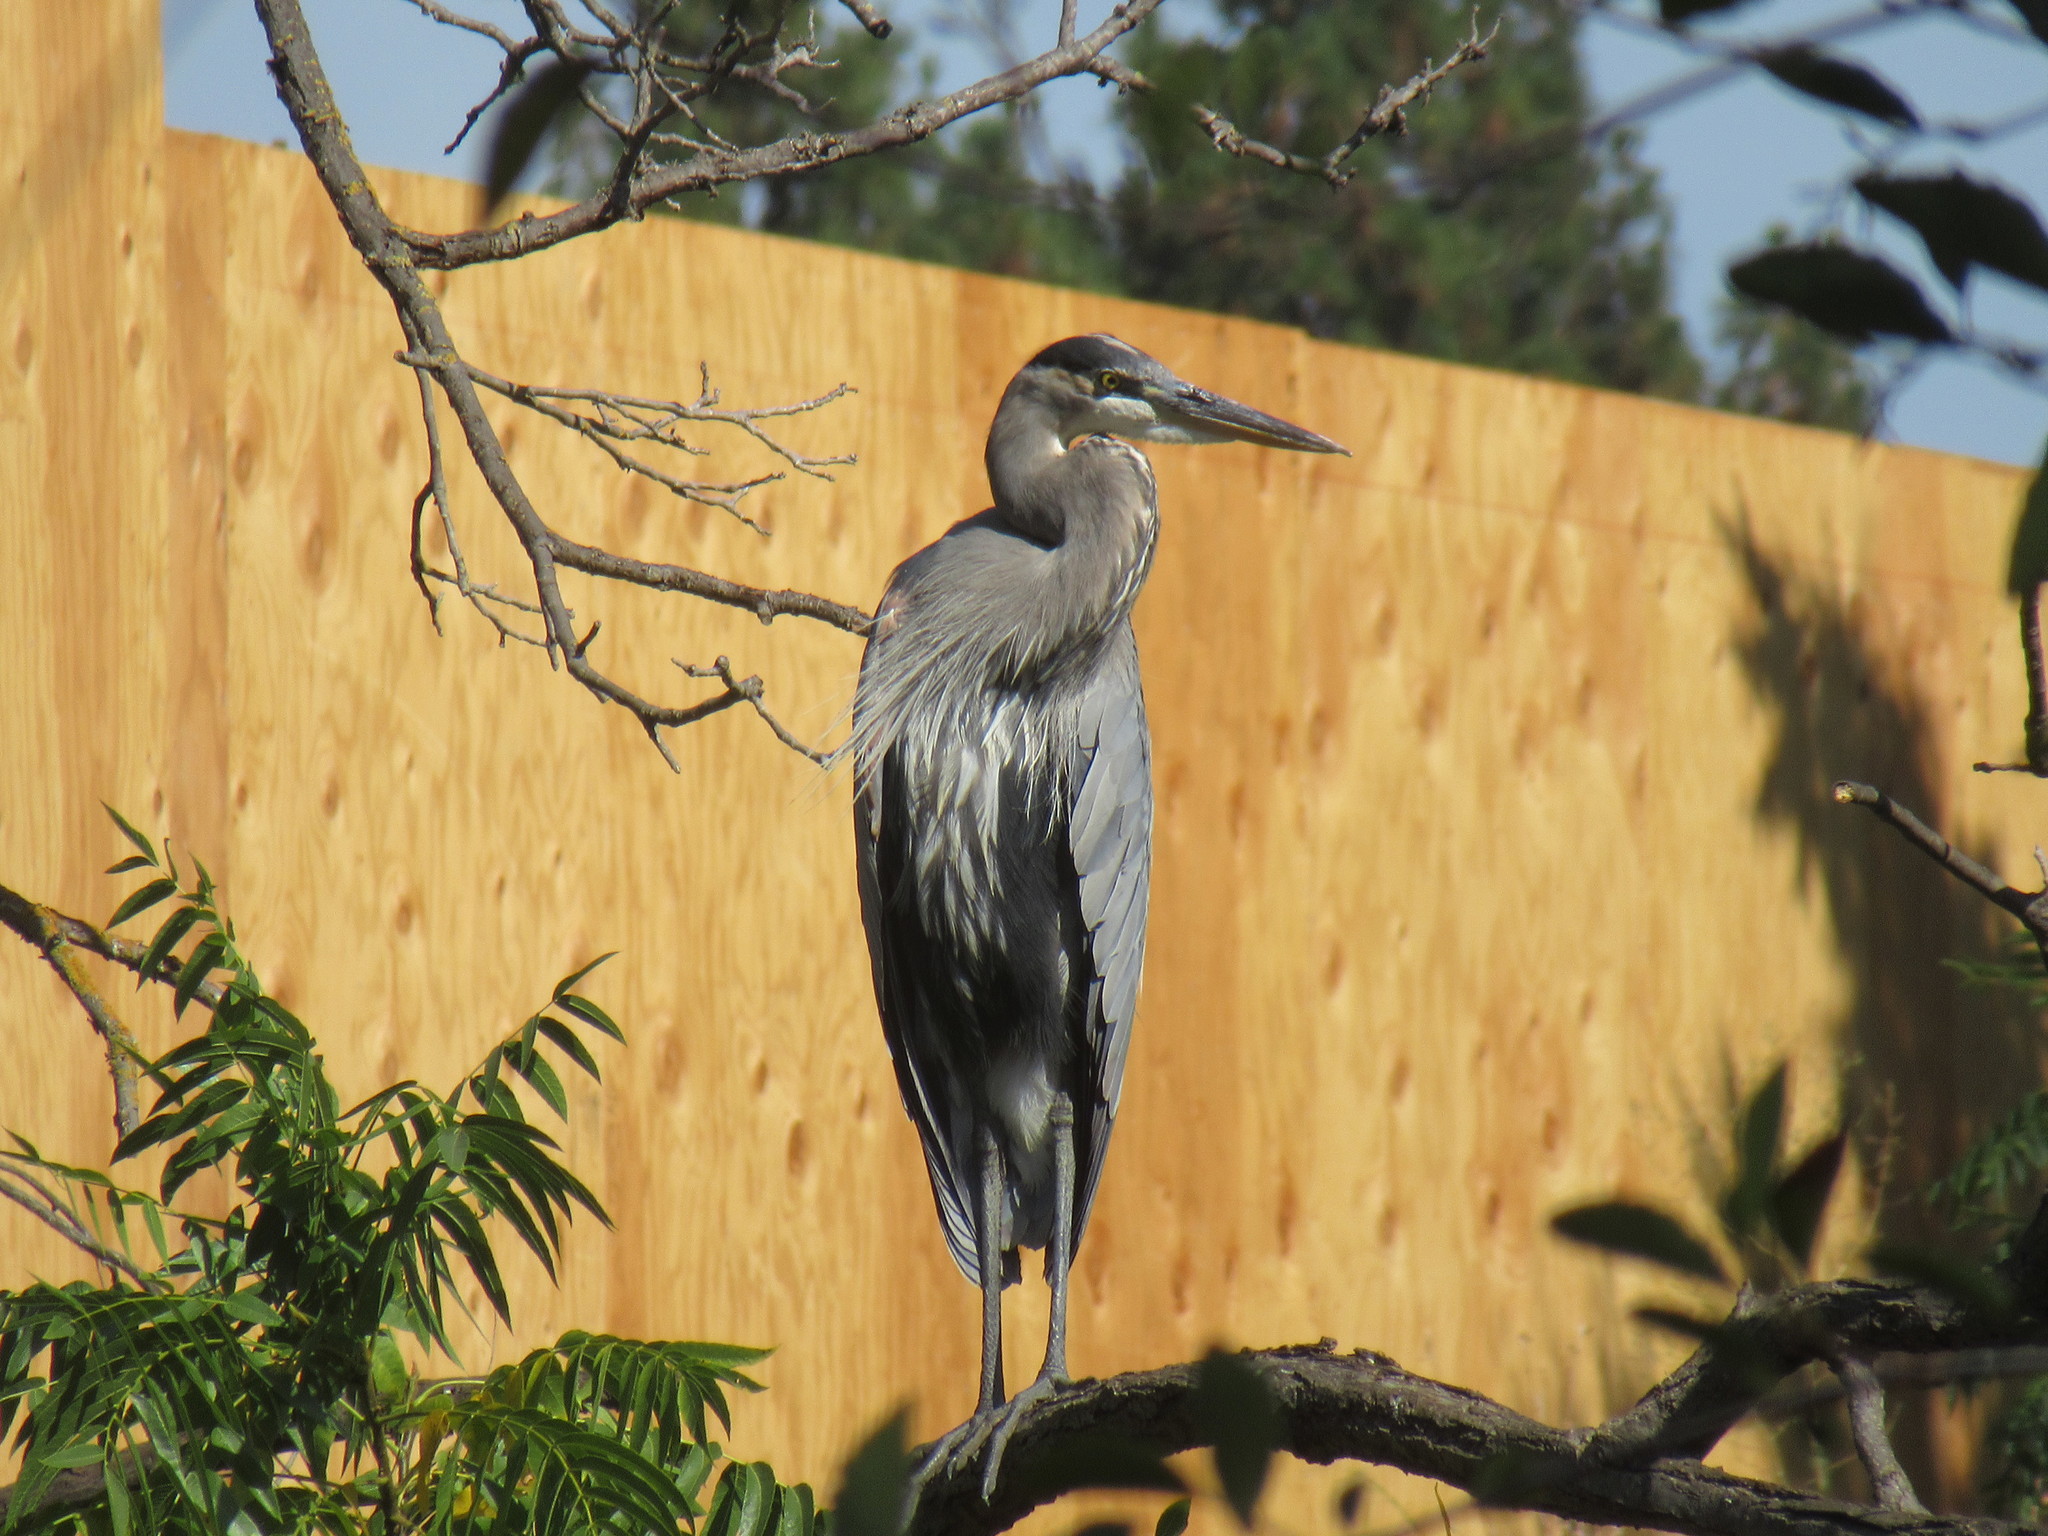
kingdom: Animalia
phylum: Chordata
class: Aves
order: Pelecaniformes
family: Ardeidae
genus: Ardea
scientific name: Ardea herodias
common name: Great blue heron
